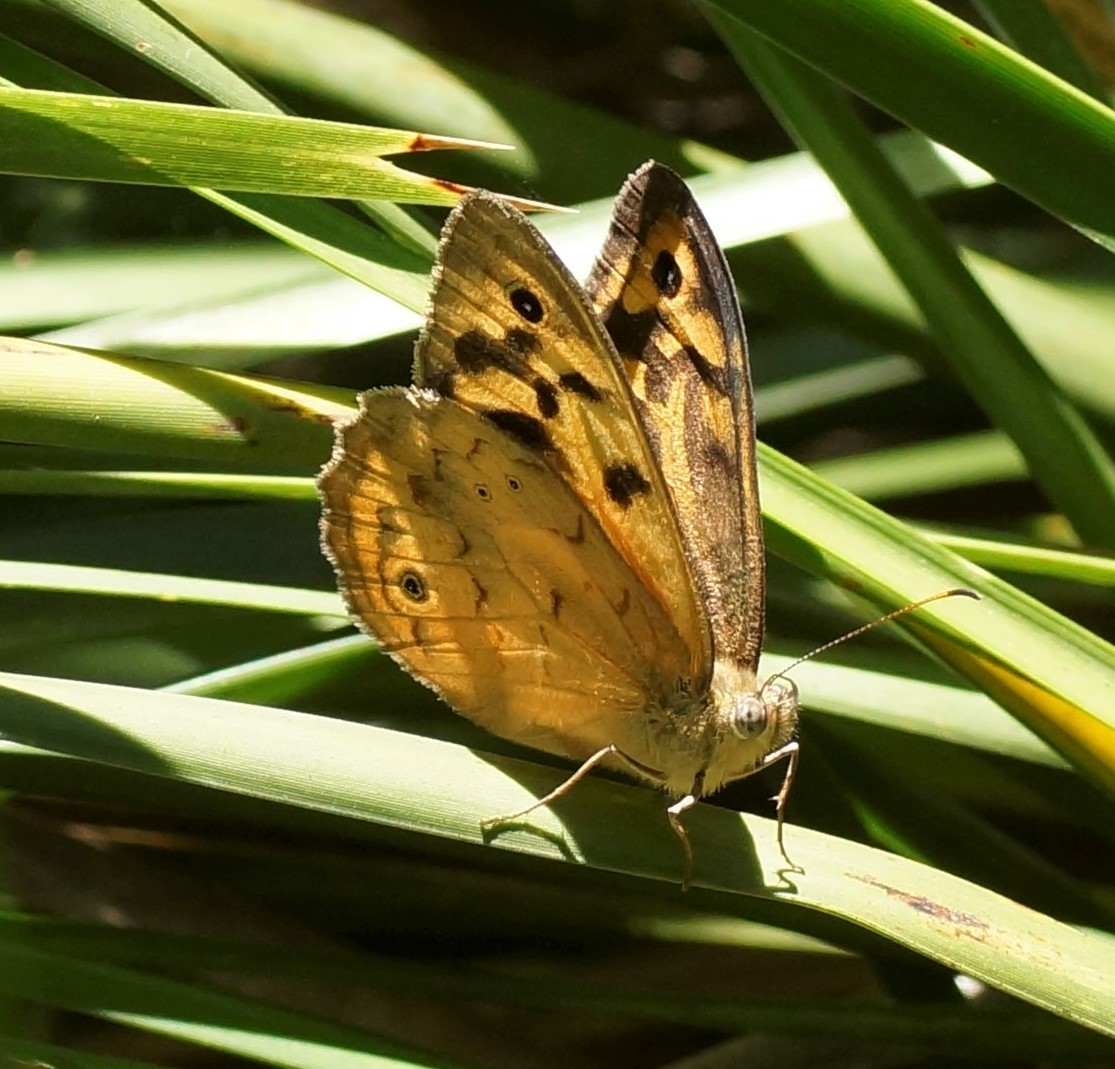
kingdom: Animalia
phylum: Arthropoda
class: Insecta
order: Lepidoptera
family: Nymphalidae
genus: Heteronympha
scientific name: Heteronympha merope
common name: Common brown
